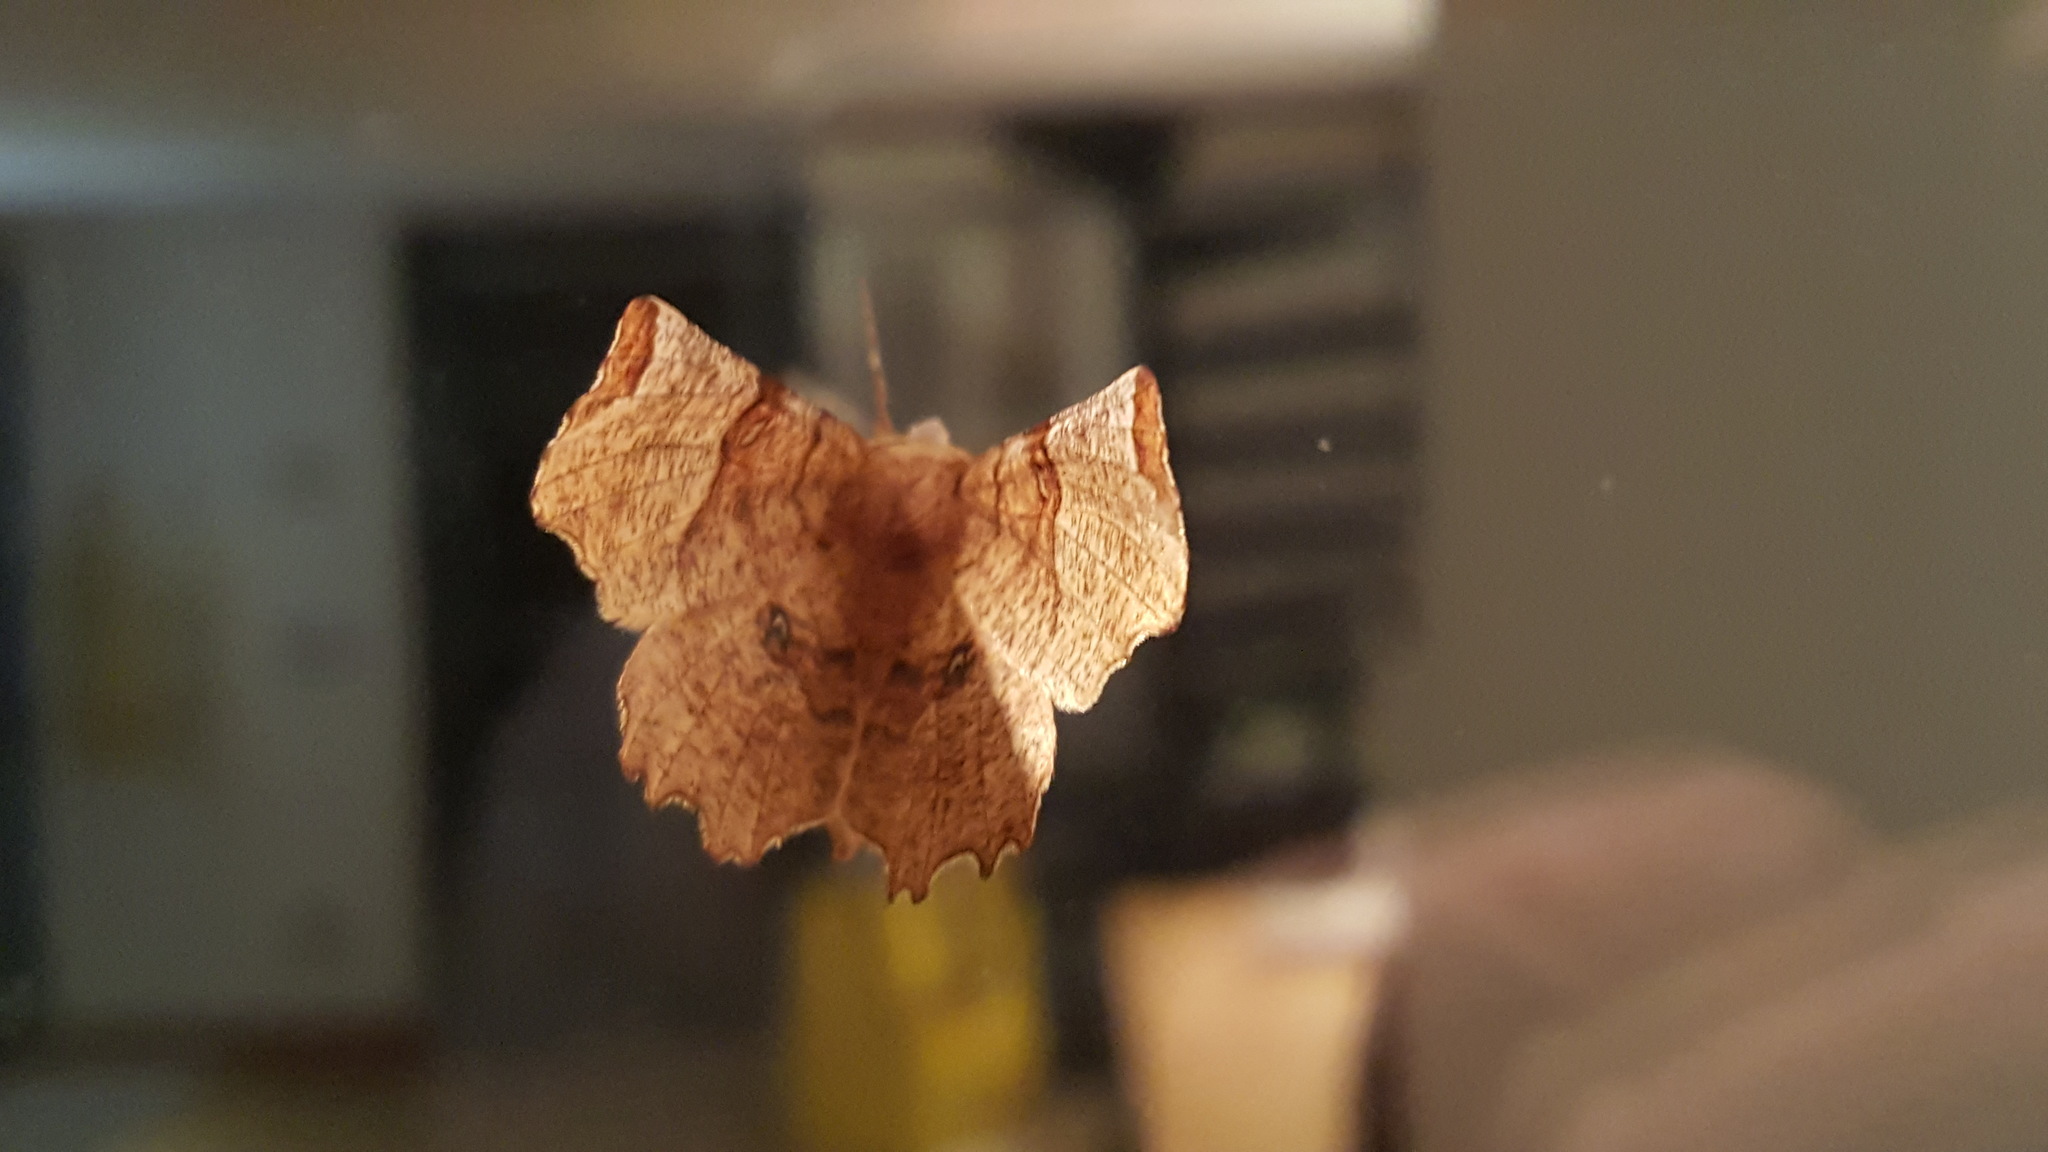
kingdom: Animalia
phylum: Arthropoda
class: Insecta
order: Lepidoptera
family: Geometridae
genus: Selenia
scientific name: Selenia lunularia
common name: Lunar thorn
